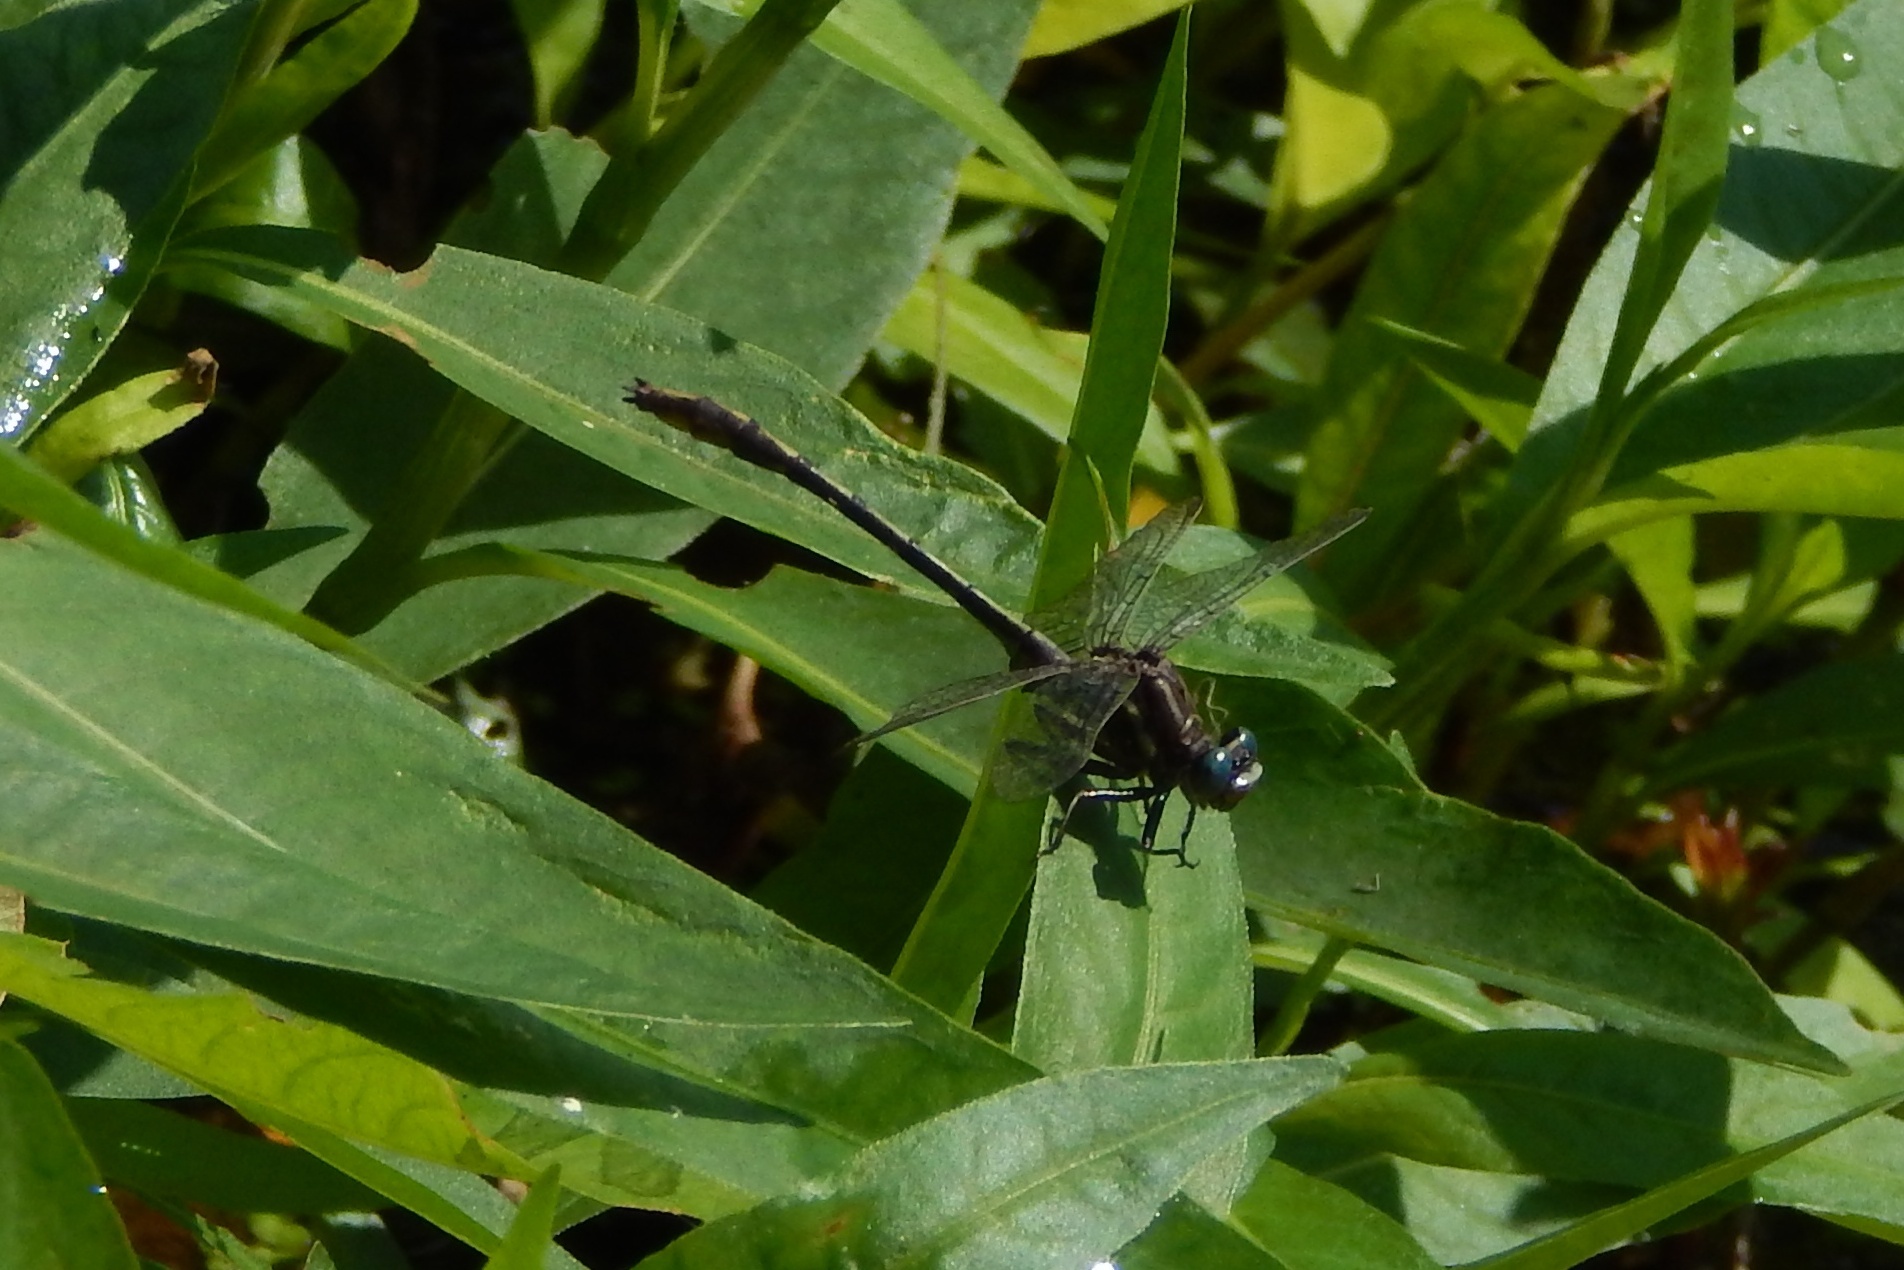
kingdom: Animalia
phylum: Arthropoda
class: Insecta
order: Odonata
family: Gomphidae
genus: Phanogomphus
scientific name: Phanogomphus exilis
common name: Lancet clubtail
